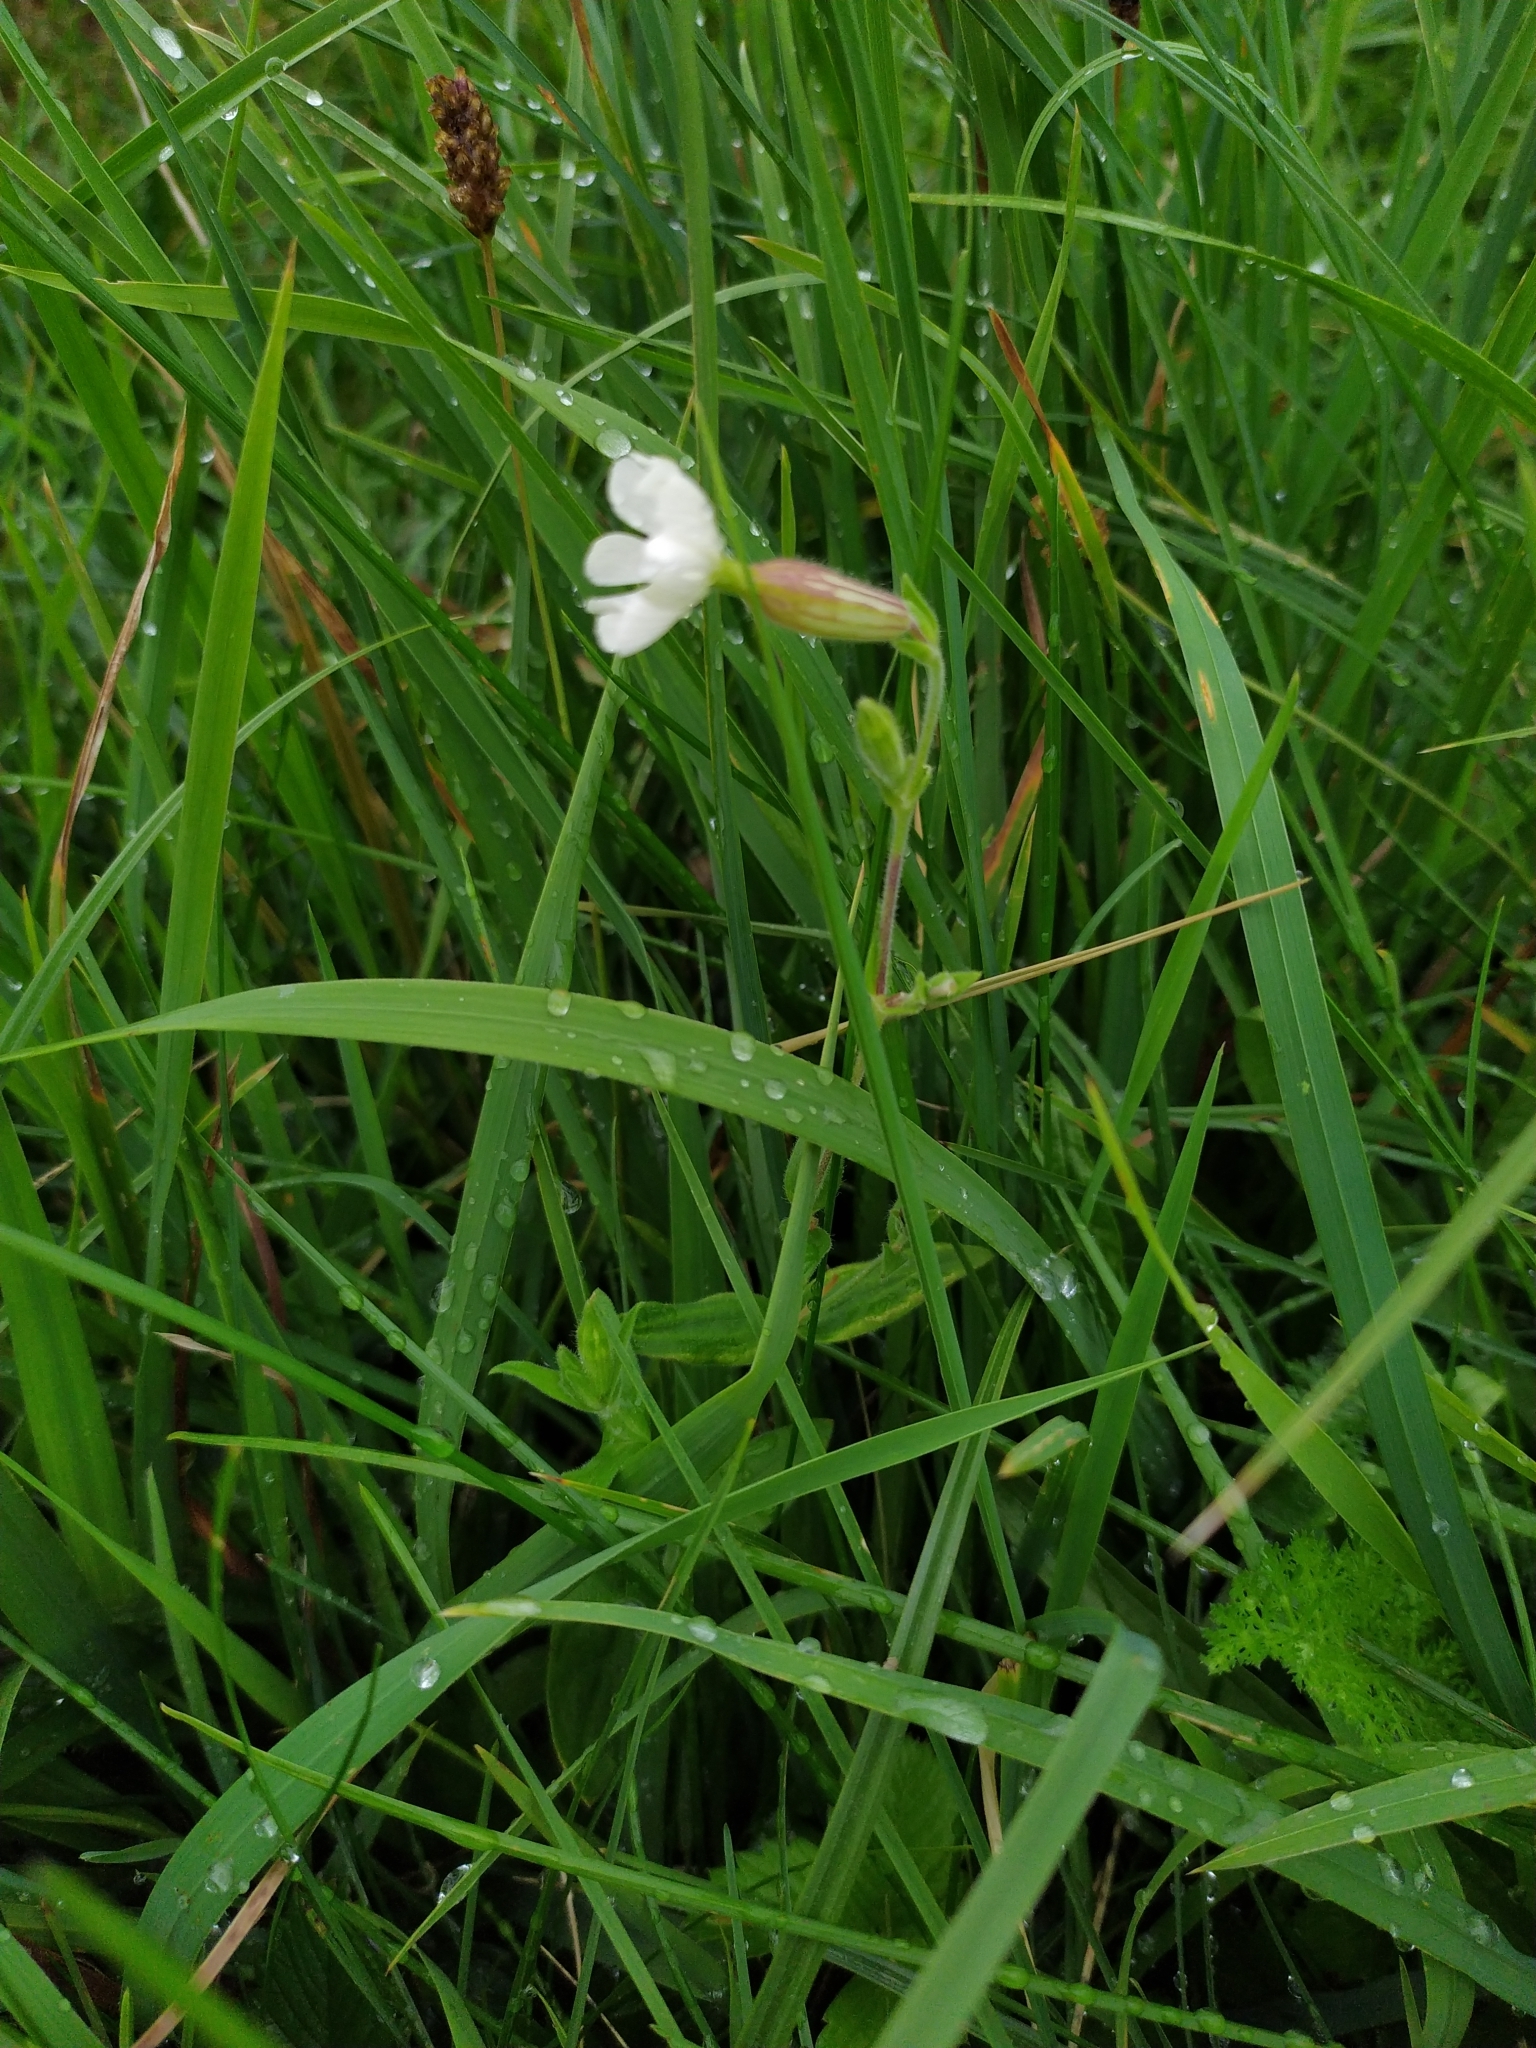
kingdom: Plantae
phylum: Tracheophyta
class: Magnoliopsida
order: Caryophyllales
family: Caryophyllaceae
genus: Silene
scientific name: Silene latifolia
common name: White campion
